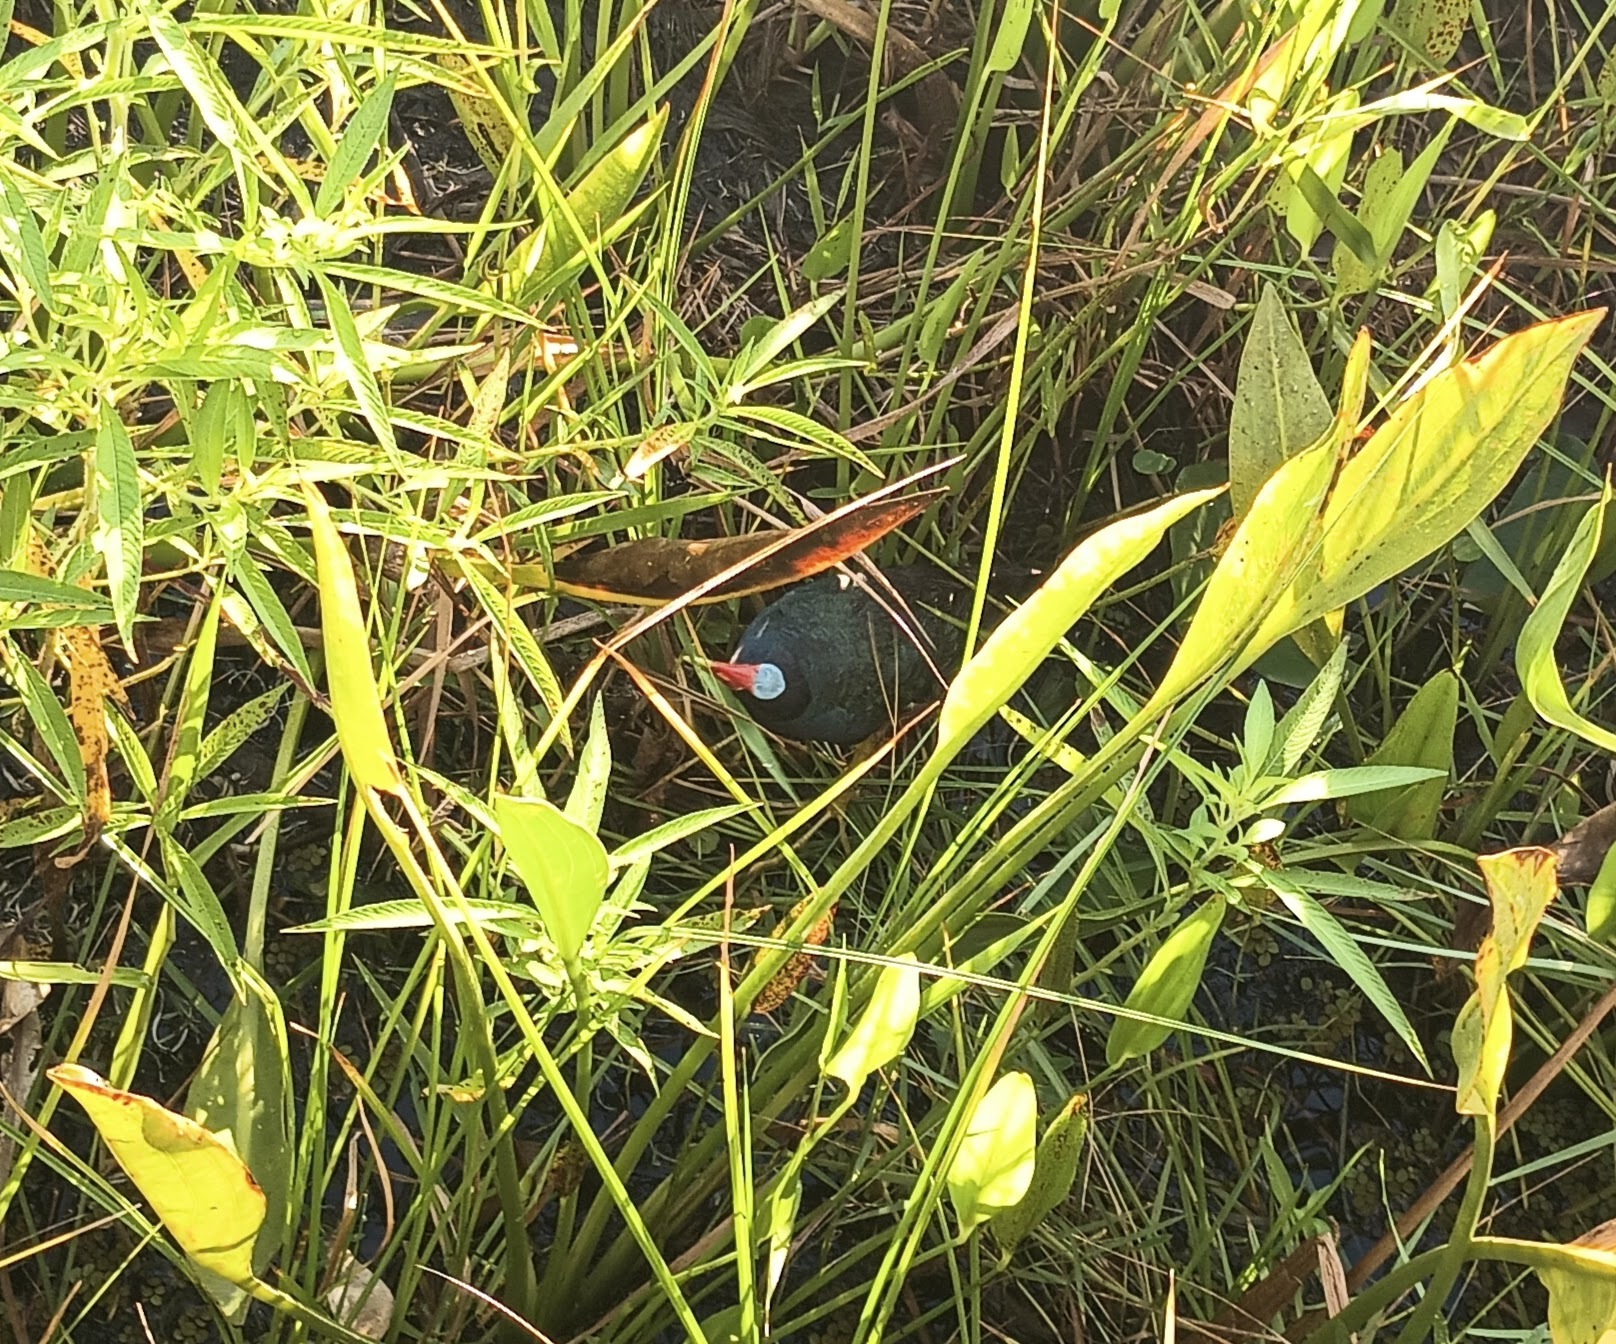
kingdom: Animalia
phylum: Chordata
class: Aves
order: Gruiformes
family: Rallidae
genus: Porphyrio
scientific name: Porphyrio martinica
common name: Purple gallinule
